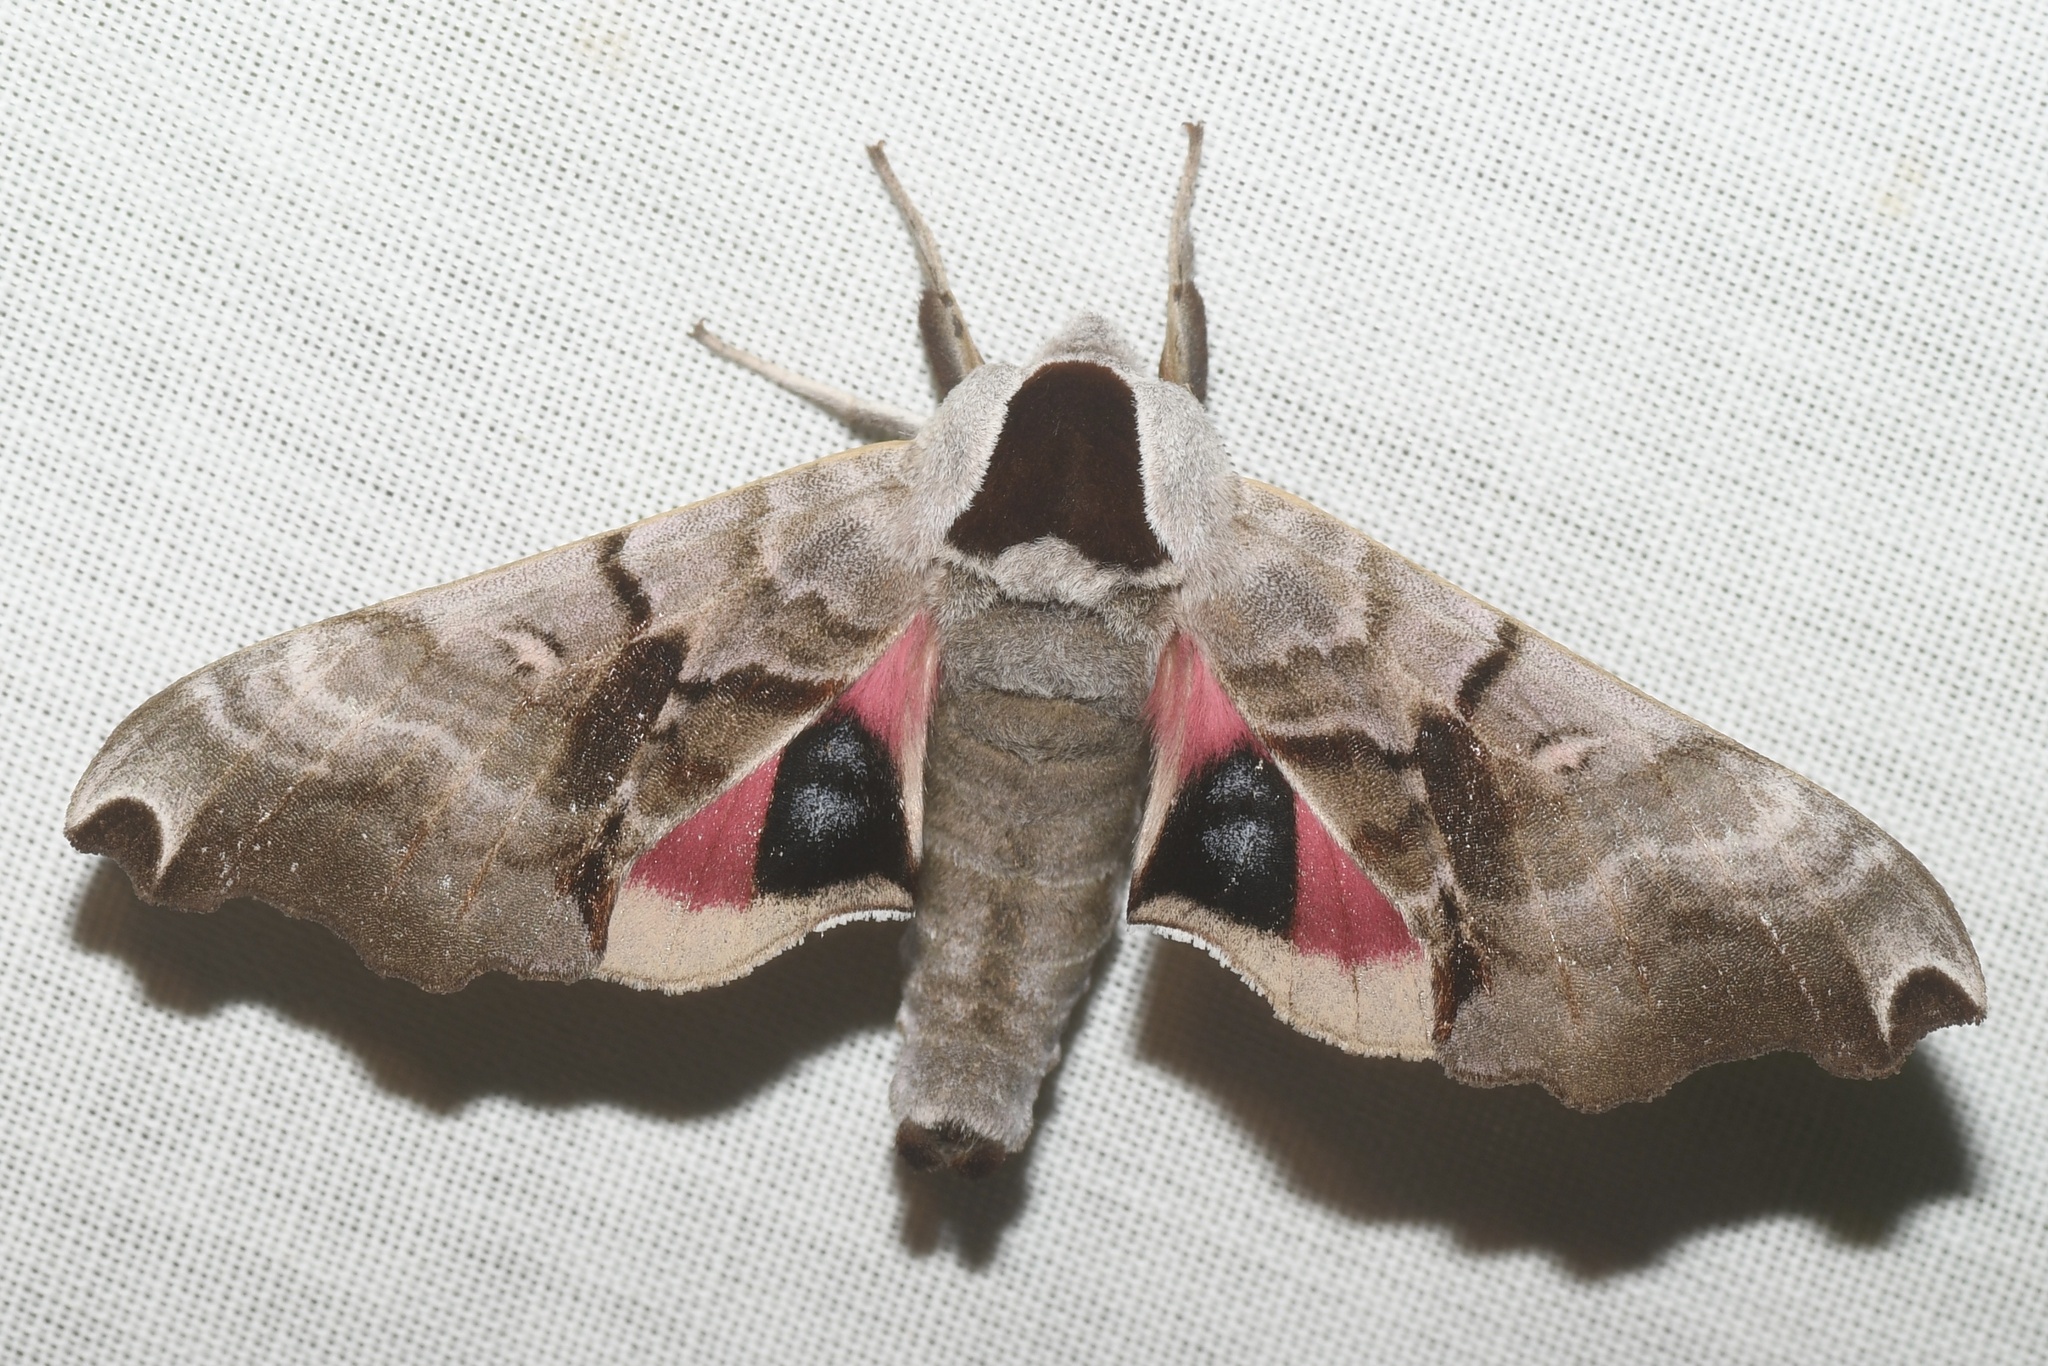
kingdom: Animalia
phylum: Arthropoda
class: Insecta
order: Lepidoptera
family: Sphingidae
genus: Smerinthus
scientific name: Smerinthus jamaicensis
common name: Twin spotted sphinx
